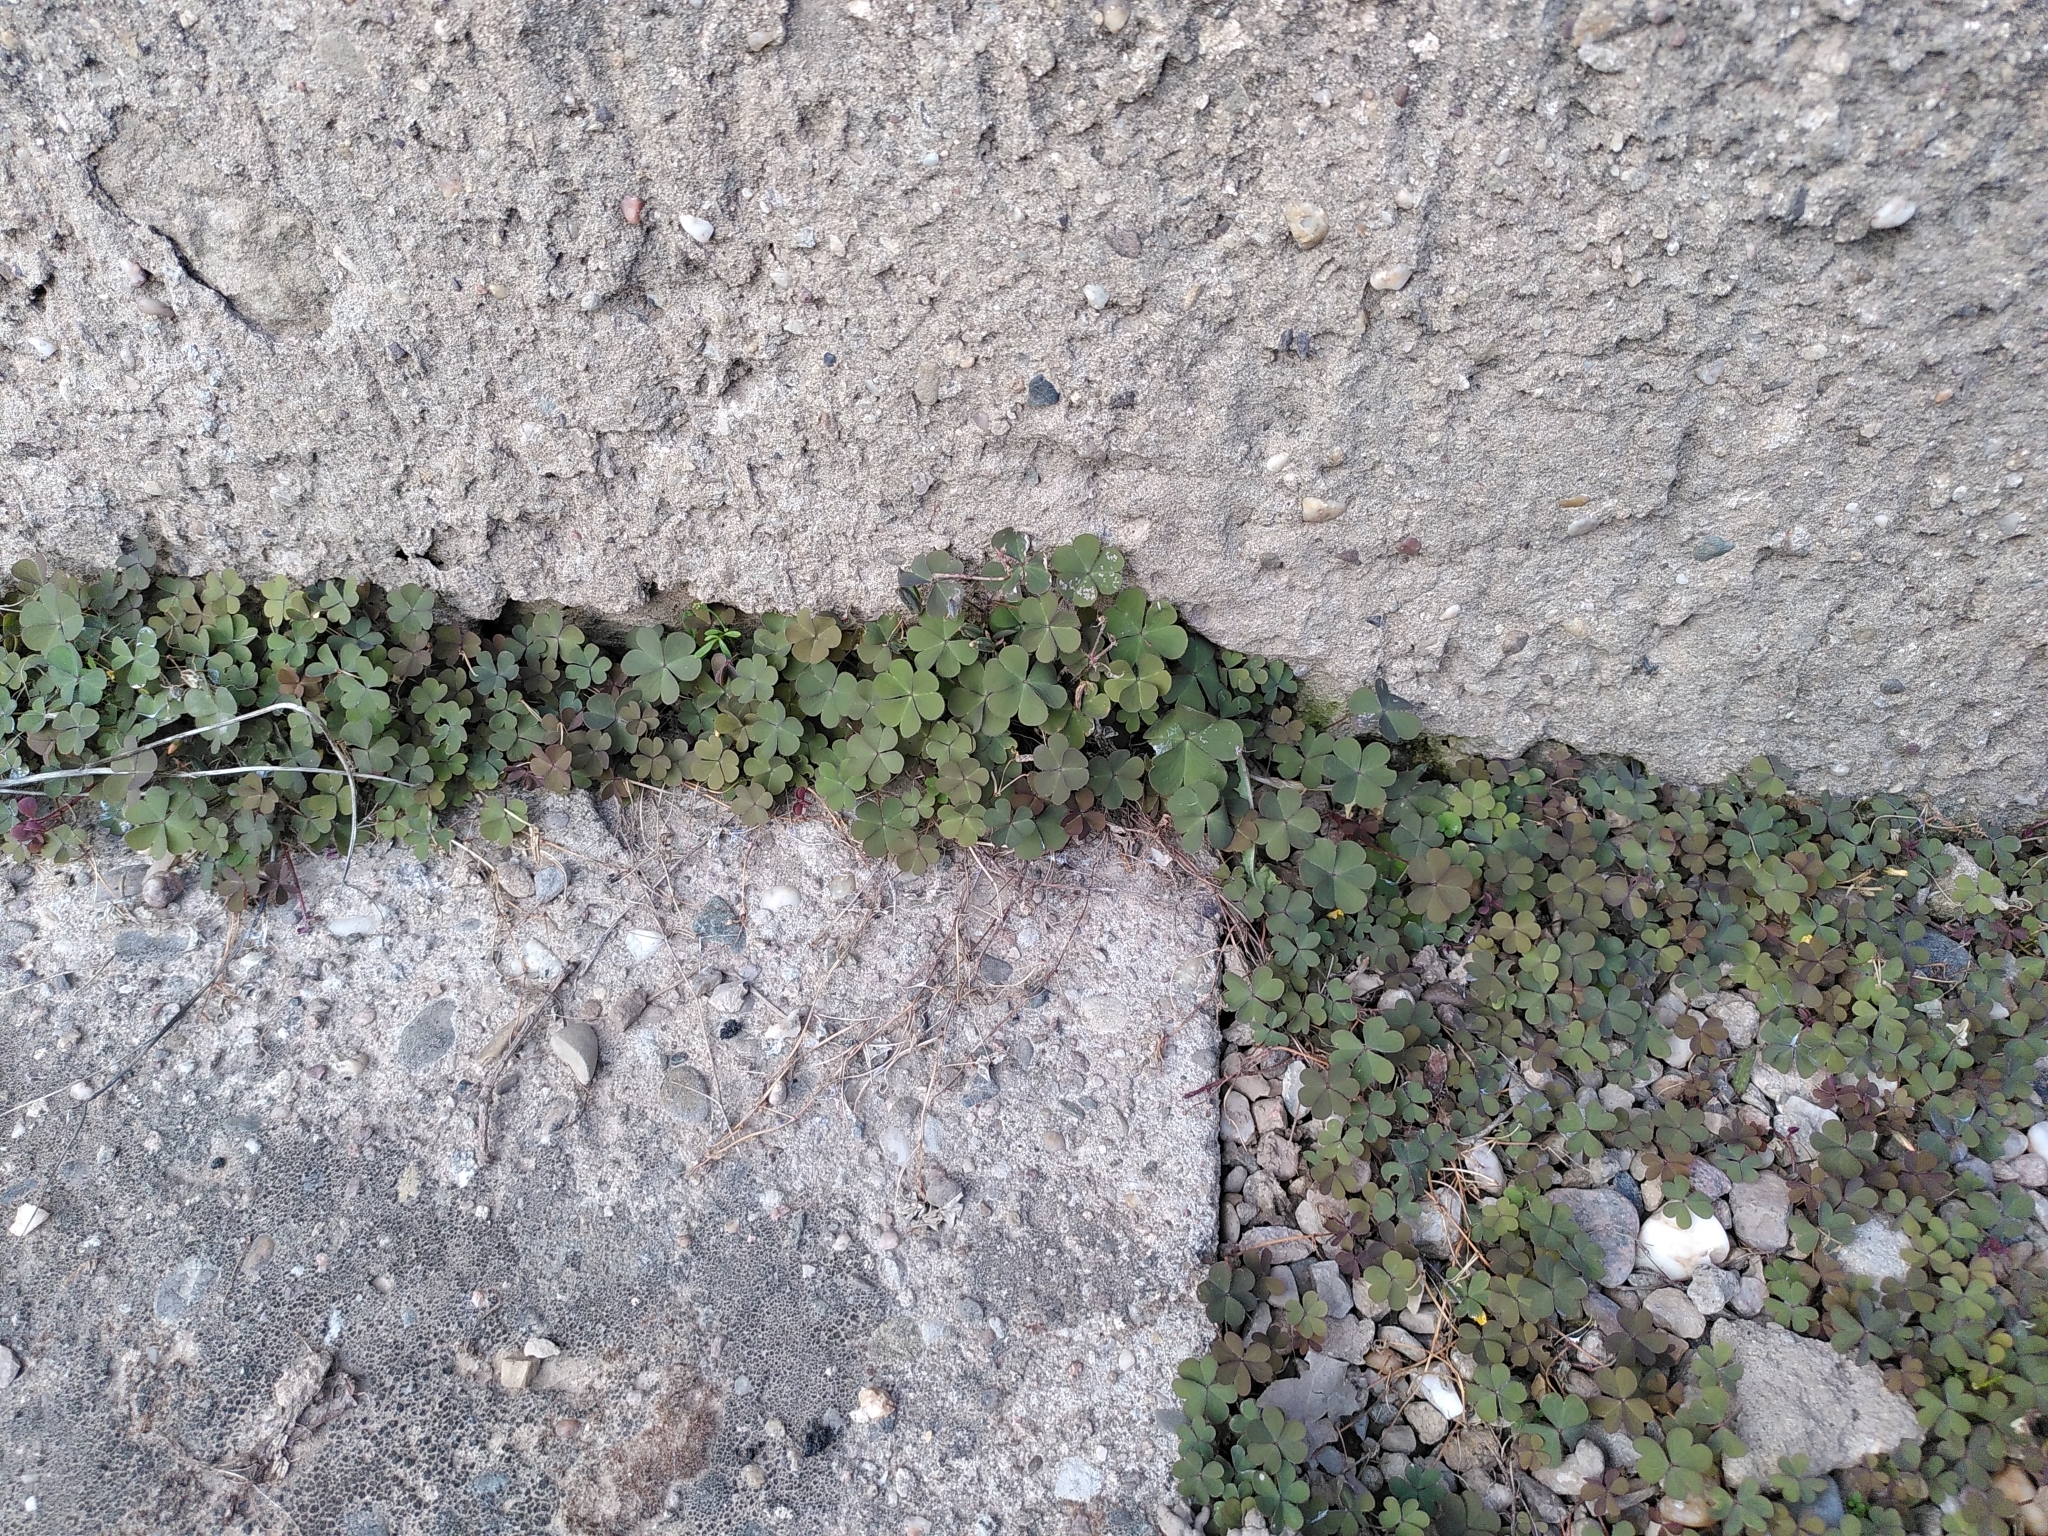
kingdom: Plantae
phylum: Tracheophyta
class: Magnoliopsida
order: Oxalidales
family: Oxalidaceae
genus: Oxalis
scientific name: Oxalis corniculata
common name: Procumbent yellow-sorrel
